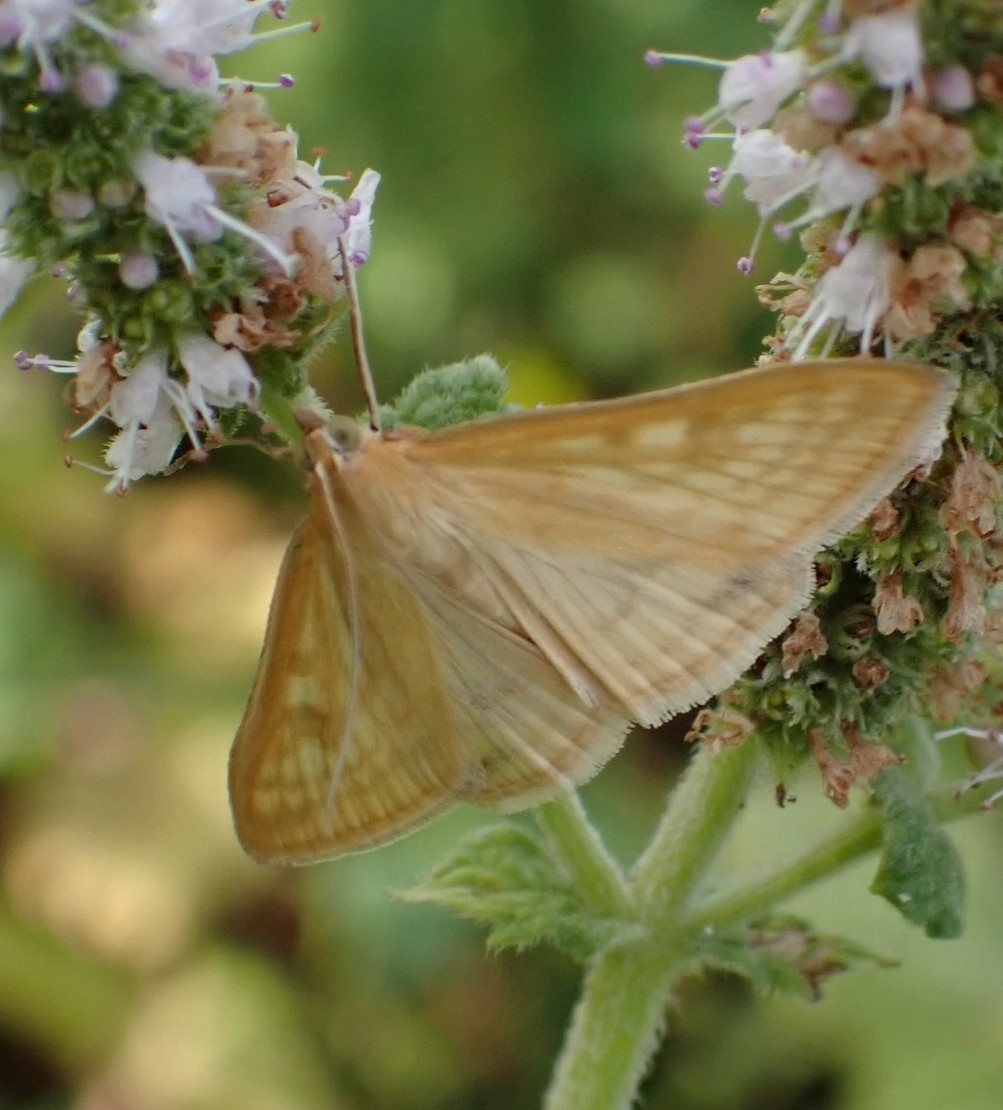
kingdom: Animalia
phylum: Arthropoda
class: Insecta
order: Lepidoptera
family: Crambidae
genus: Sitochroa
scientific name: Sitochroa verticalis
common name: Lesser pearl
